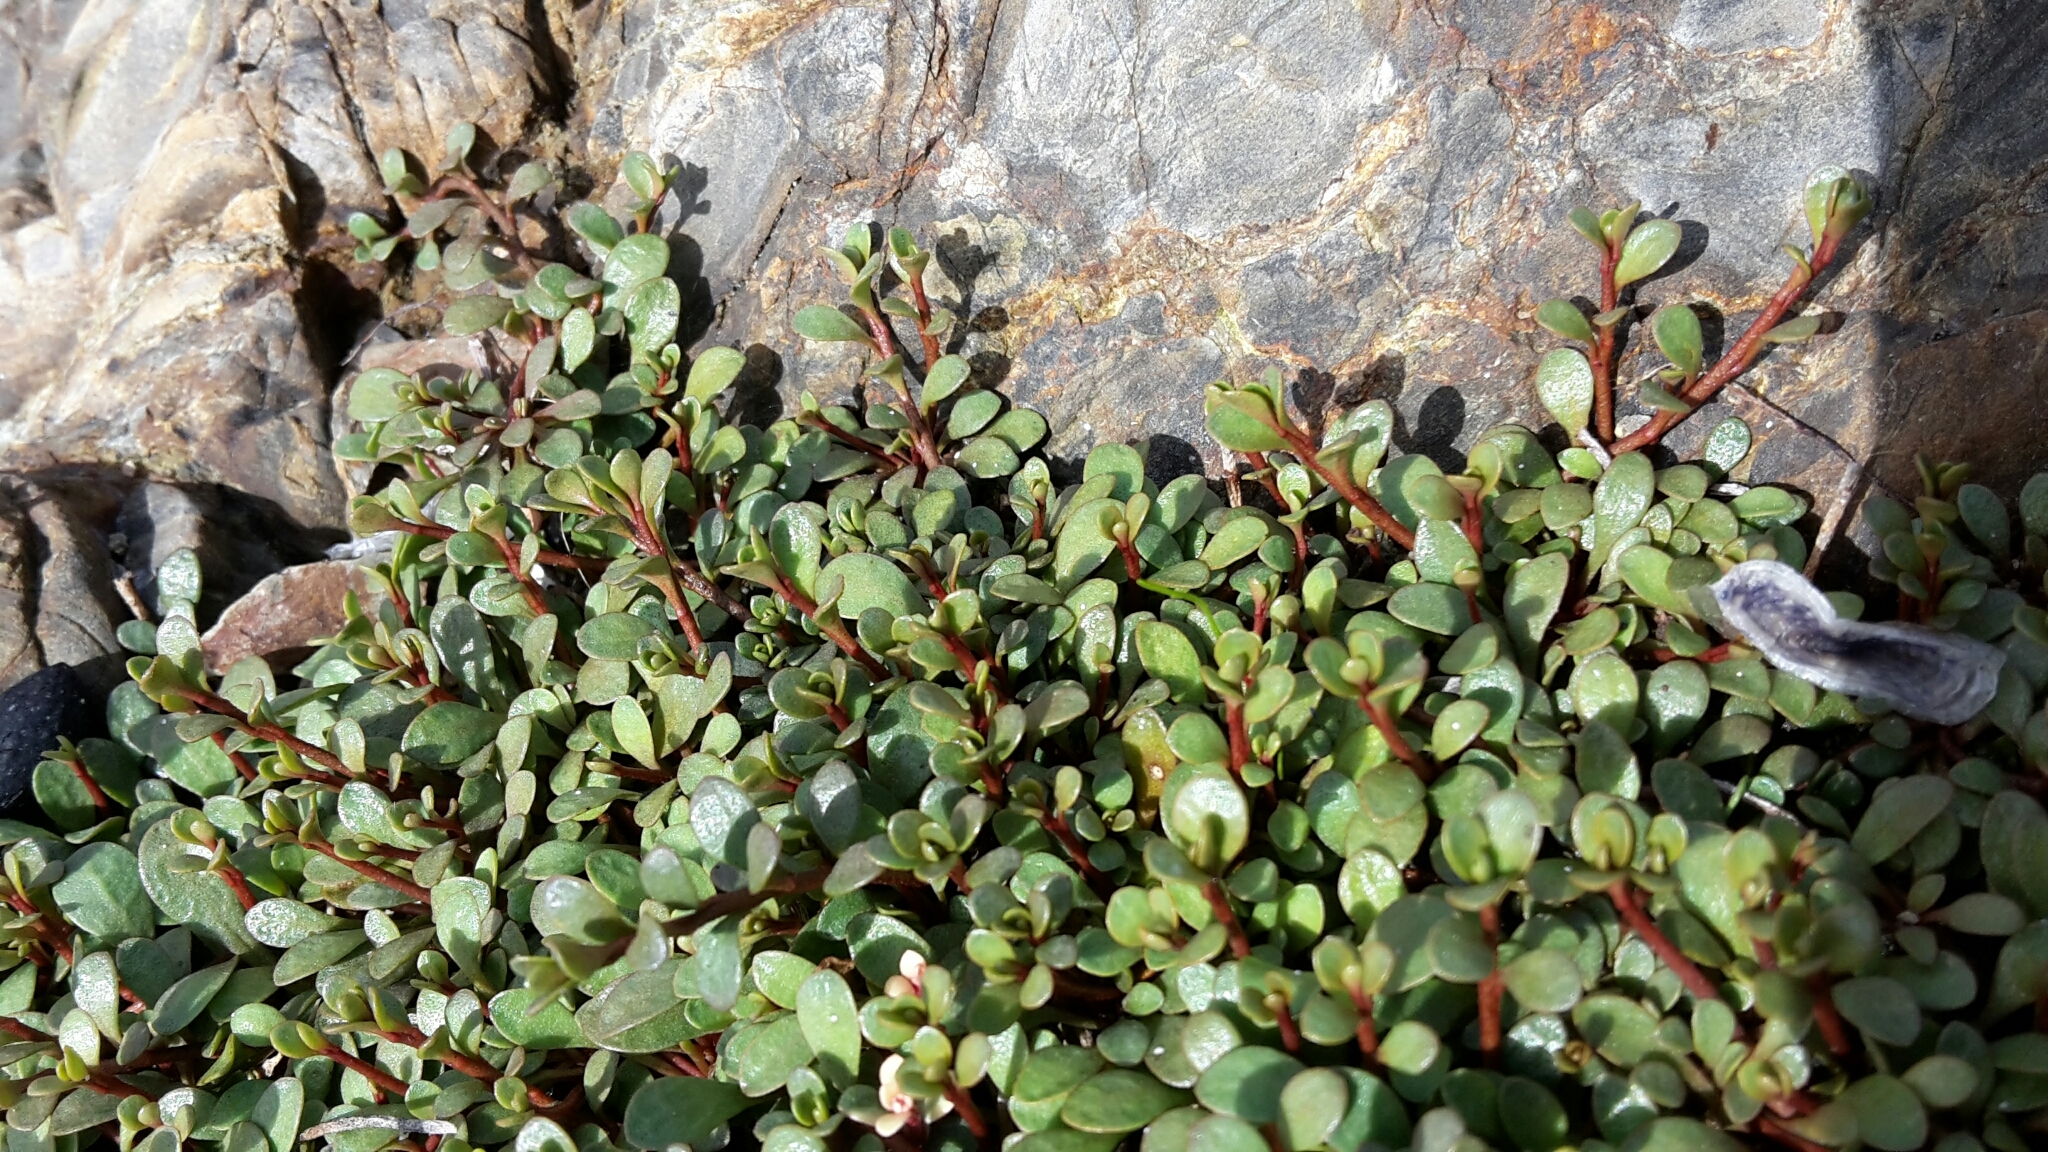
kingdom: Plantae
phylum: Tracheophyta
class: Magnoliopsida
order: Ericales
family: Primulaceae
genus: Samolus
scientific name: Samolus repens
